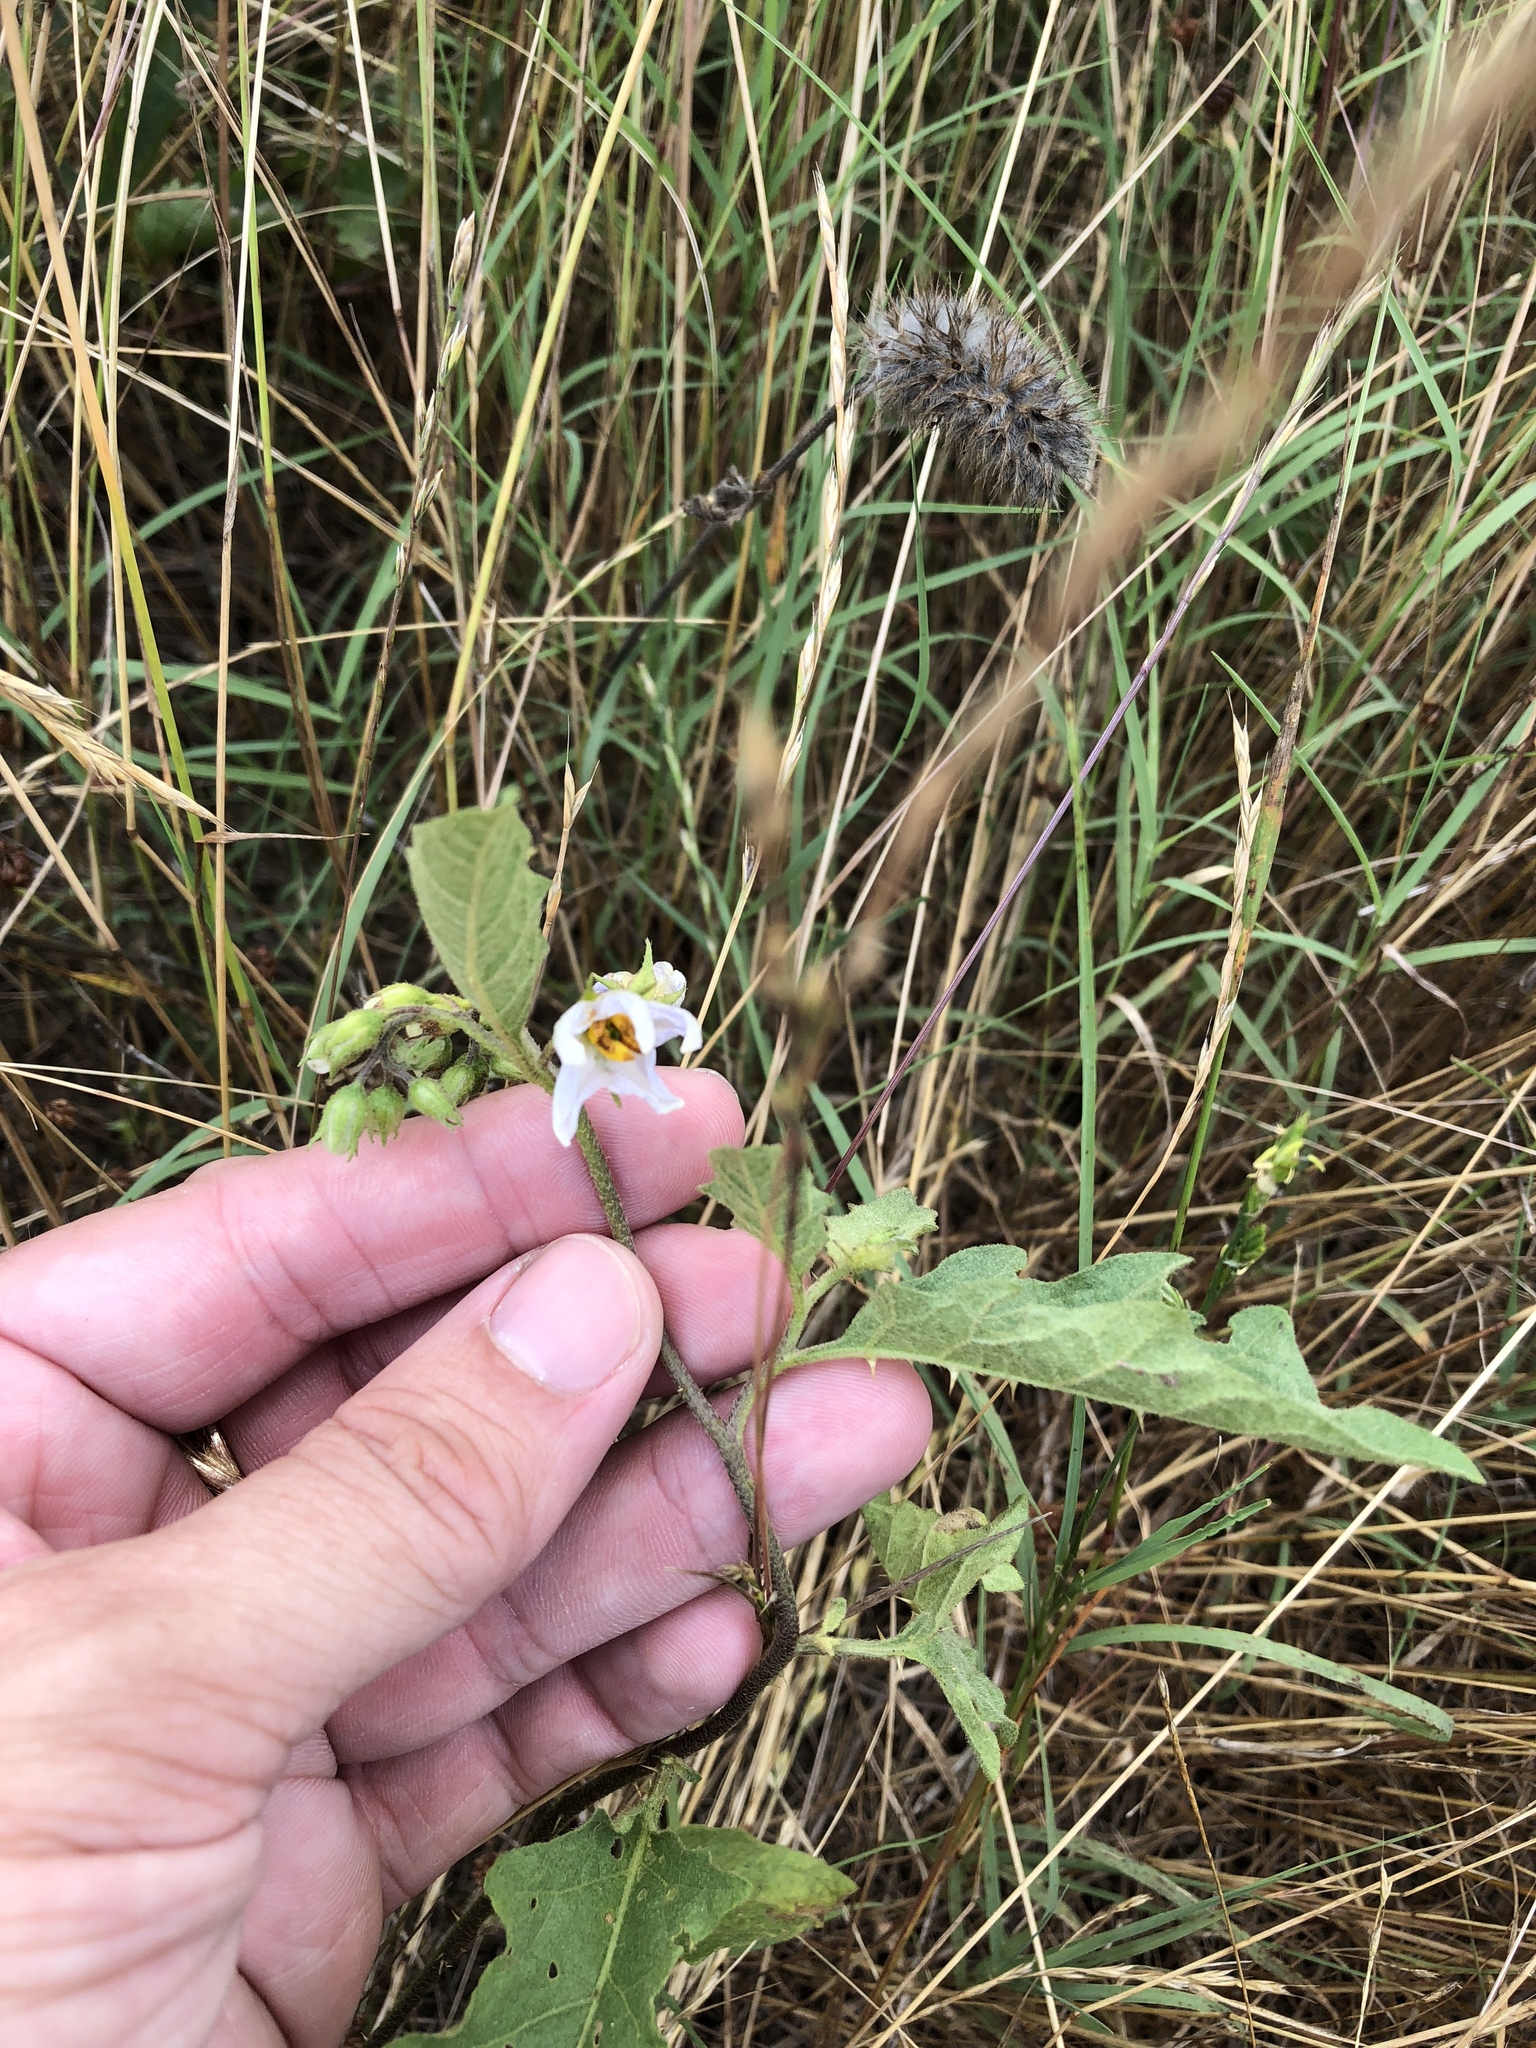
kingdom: Plantae
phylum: Tracheophyta
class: Magnoliopsida
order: Solanales
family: Solanaceae
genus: Solanum
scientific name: Solanum carolinense
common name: Horse-nettle
